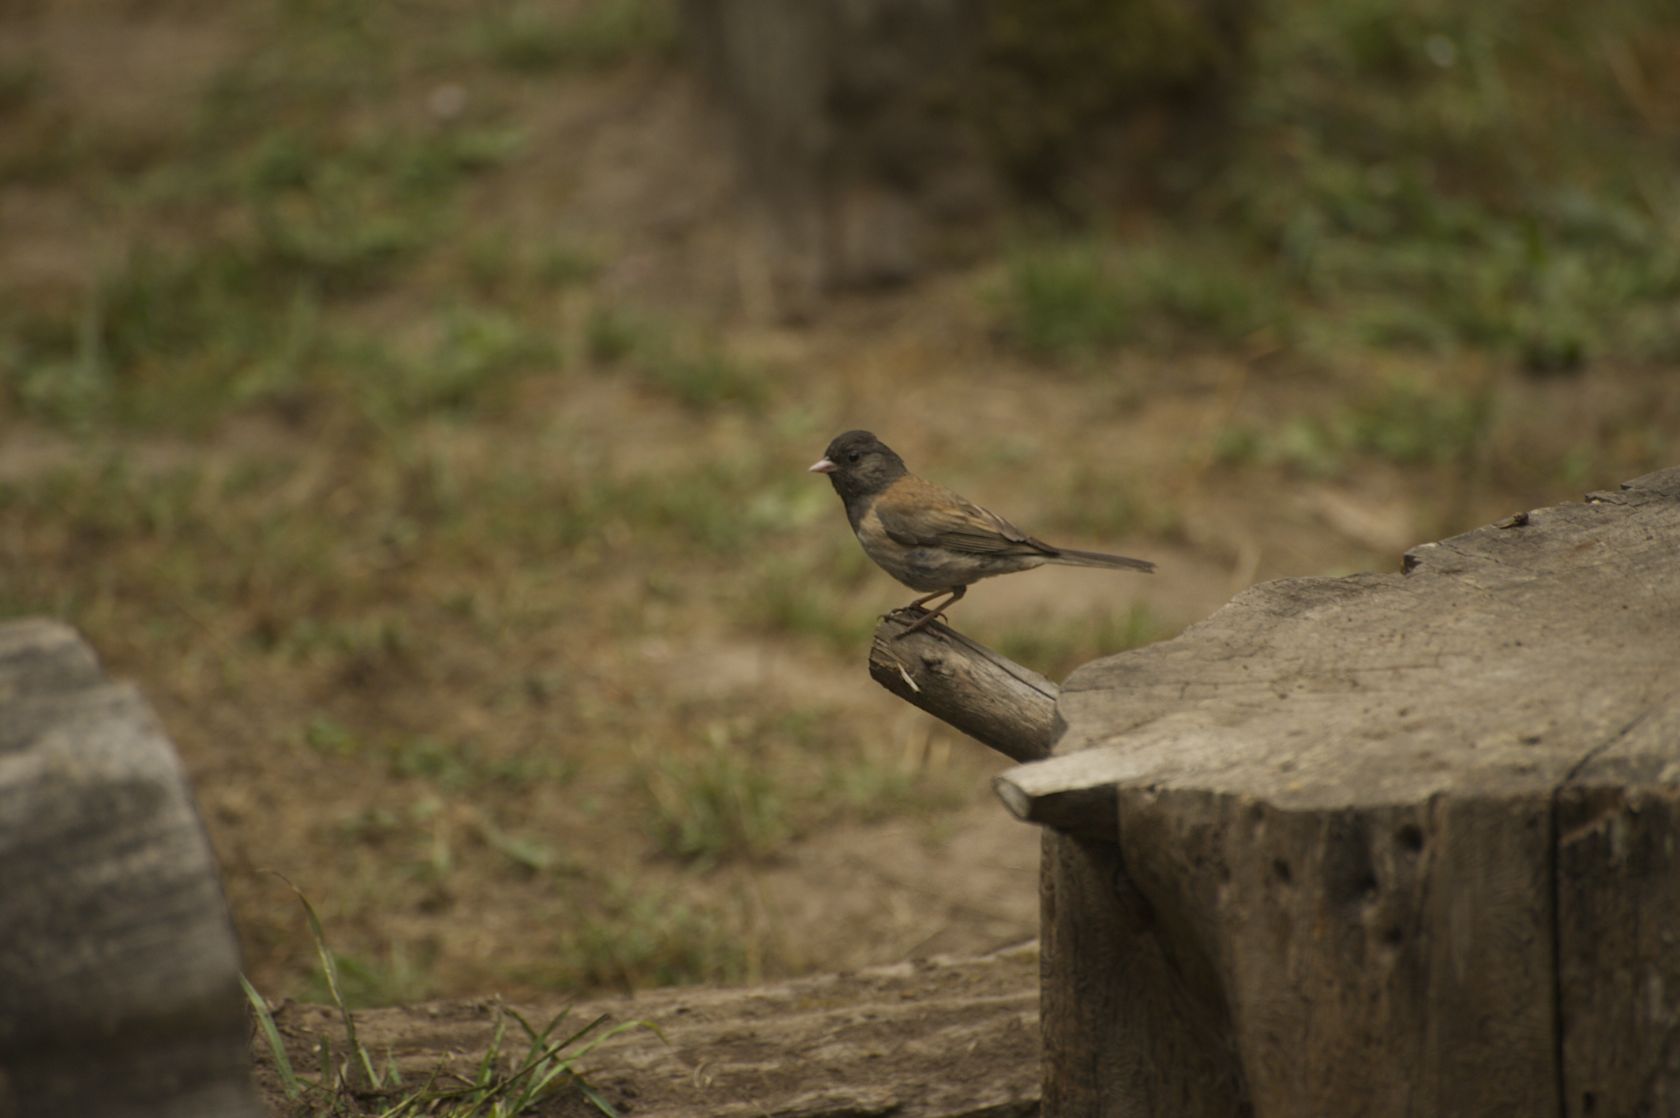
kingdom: Animalia
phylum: Chordata
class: Aves
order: Passeriformes
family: Passerellidae
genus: Junco
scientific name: Junco hyemalis
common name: Dark-eyed junco
